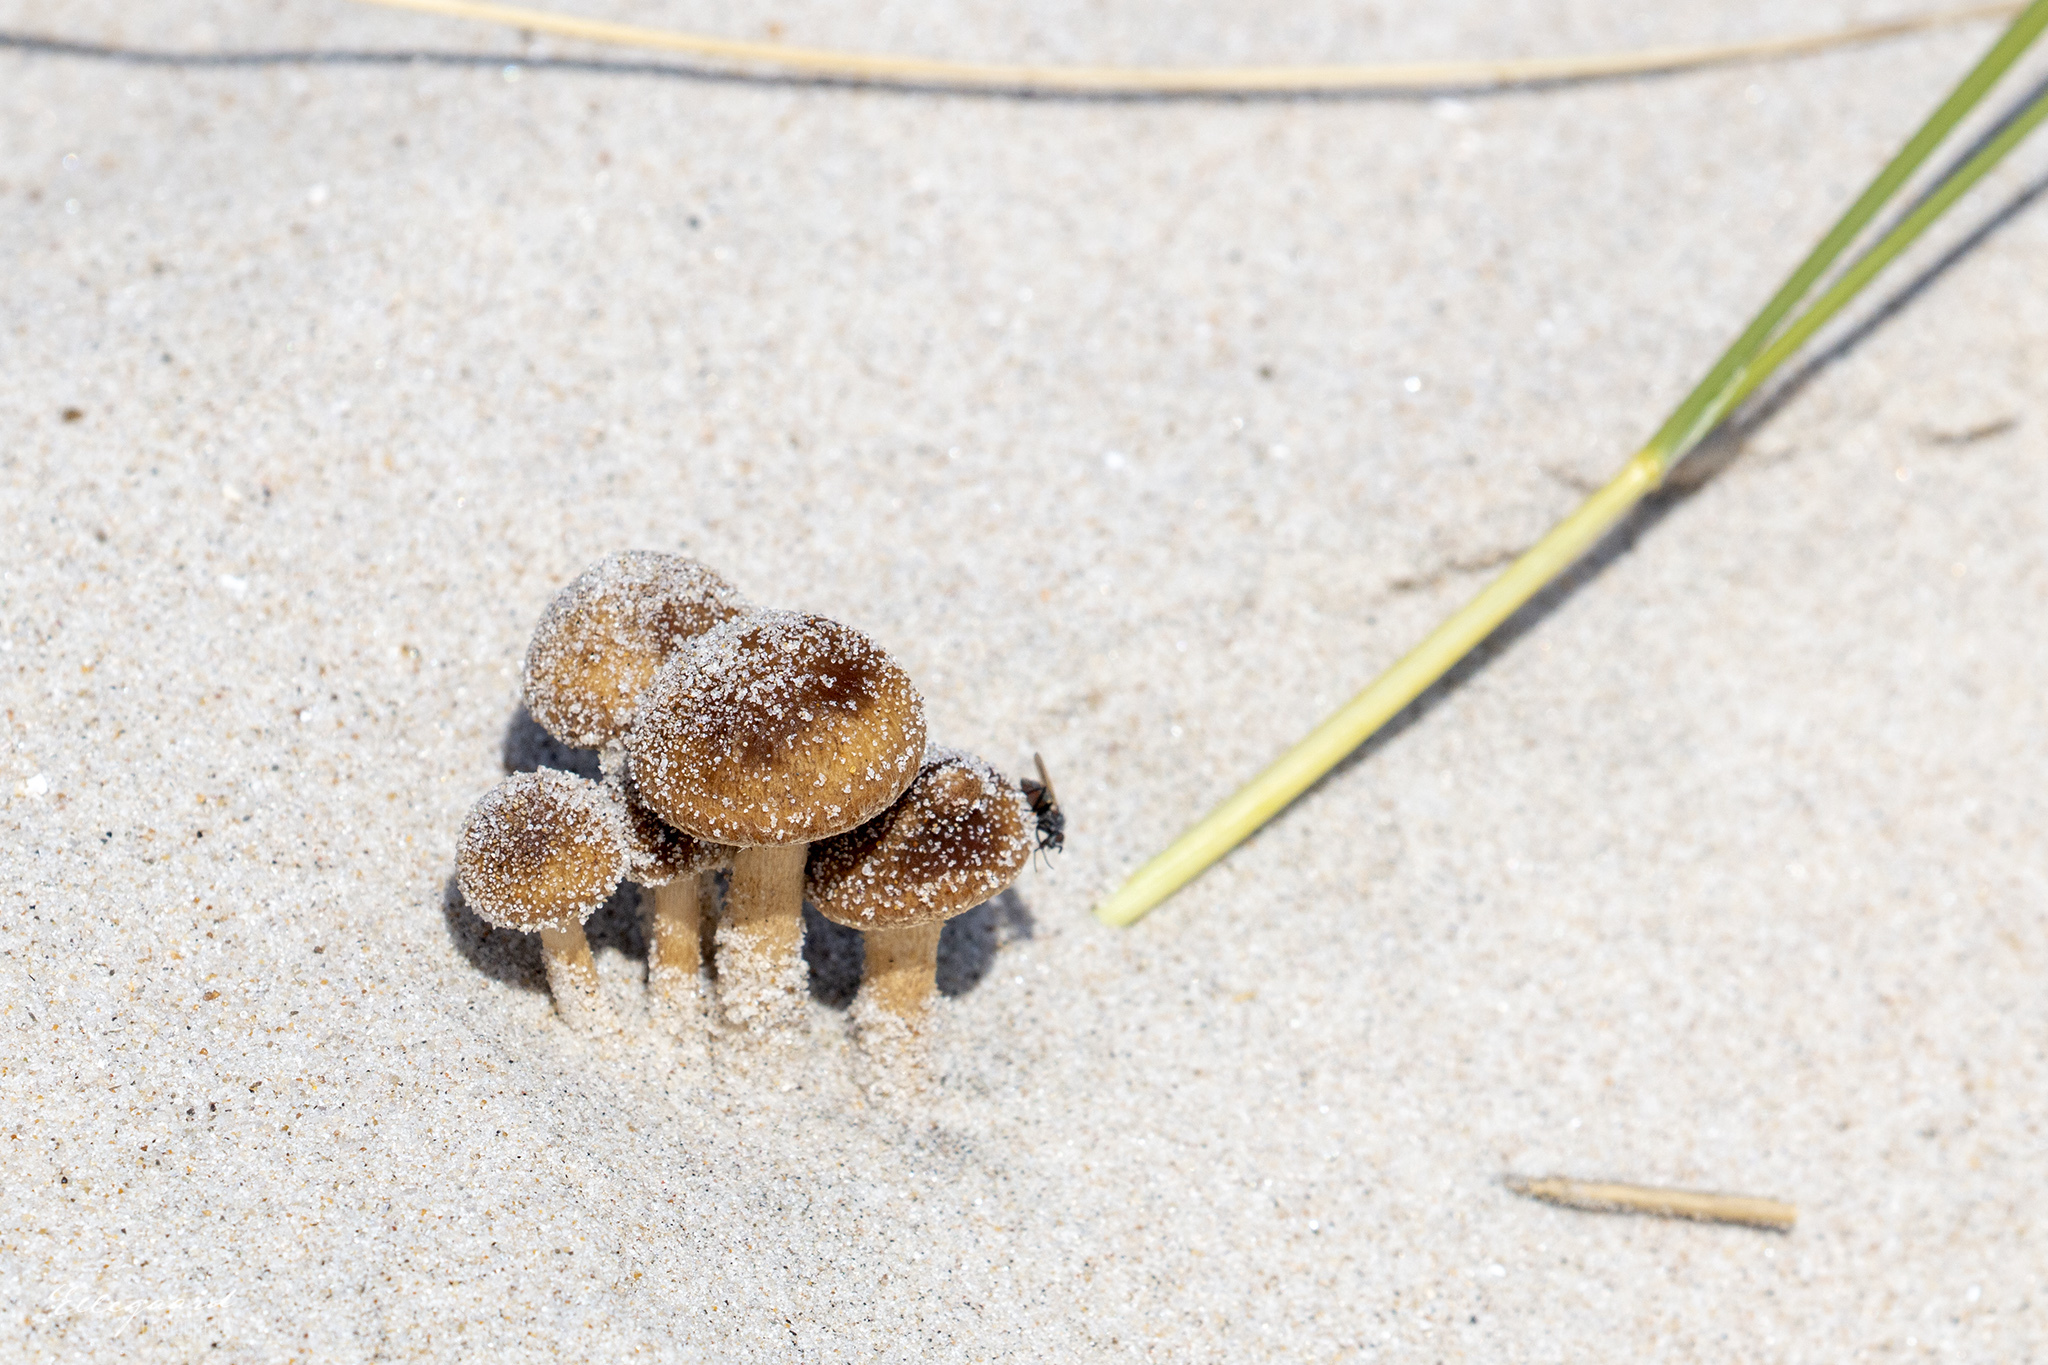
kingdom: Fungi
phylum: Basidiomycota
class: Agaricomycetes
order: Agaricales
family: Psathyrellaceae
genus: Psathyrella
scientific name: Psathyrella ammophila
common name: Dune brittlestem
